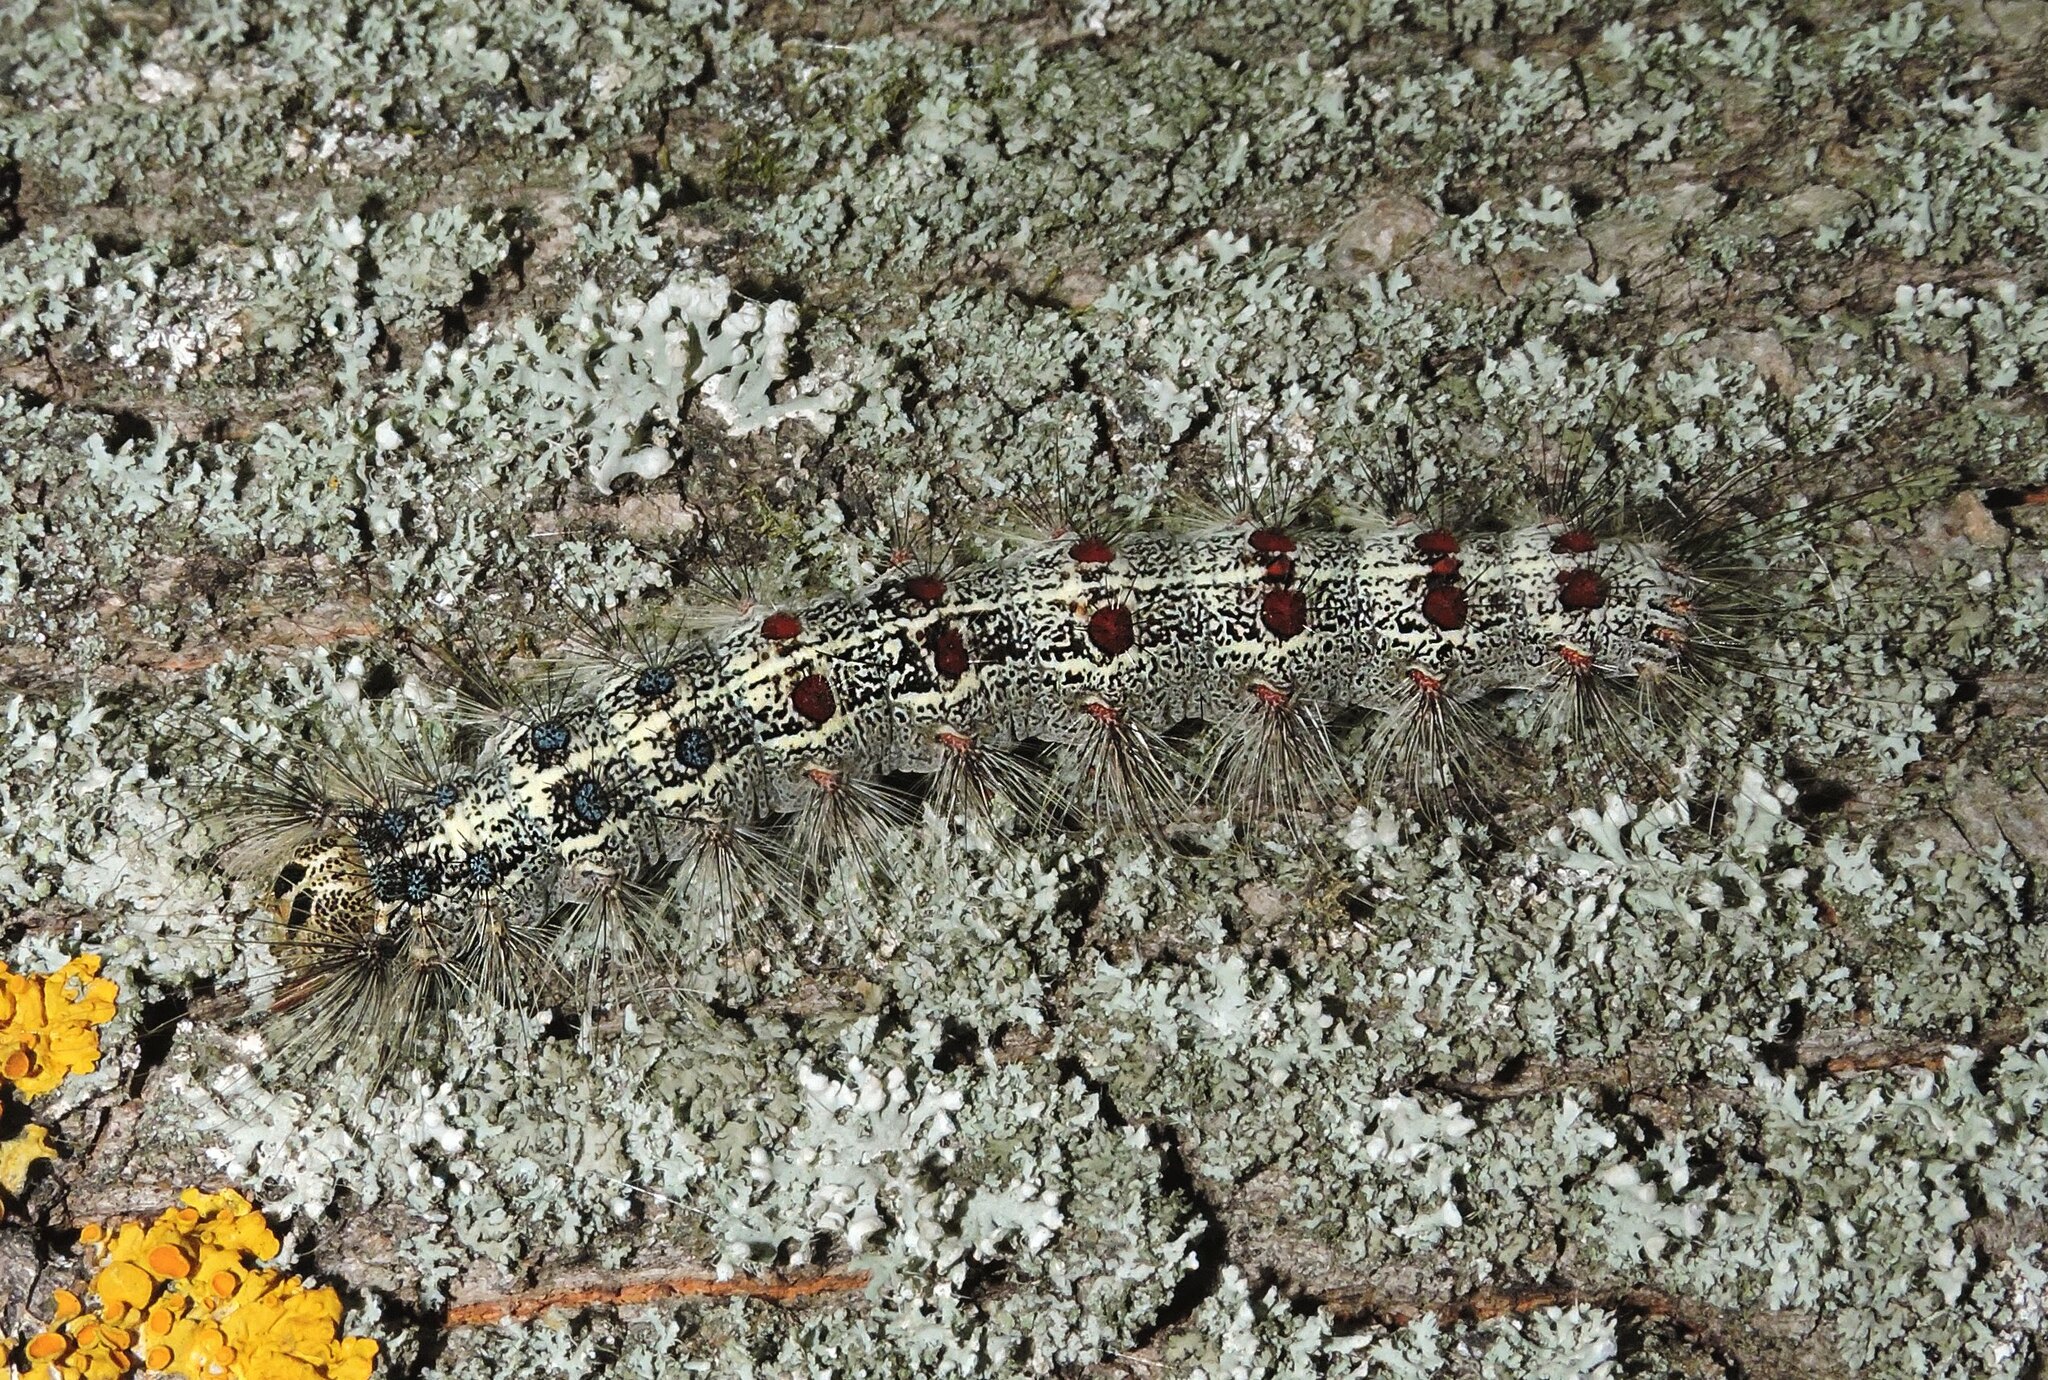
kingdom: Animalia
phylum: Arthropoda
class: Insecta
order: Lepidoptera
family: Erebidae
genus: Lymantria
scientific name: Lymantria dispar
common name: Gypsy moth
